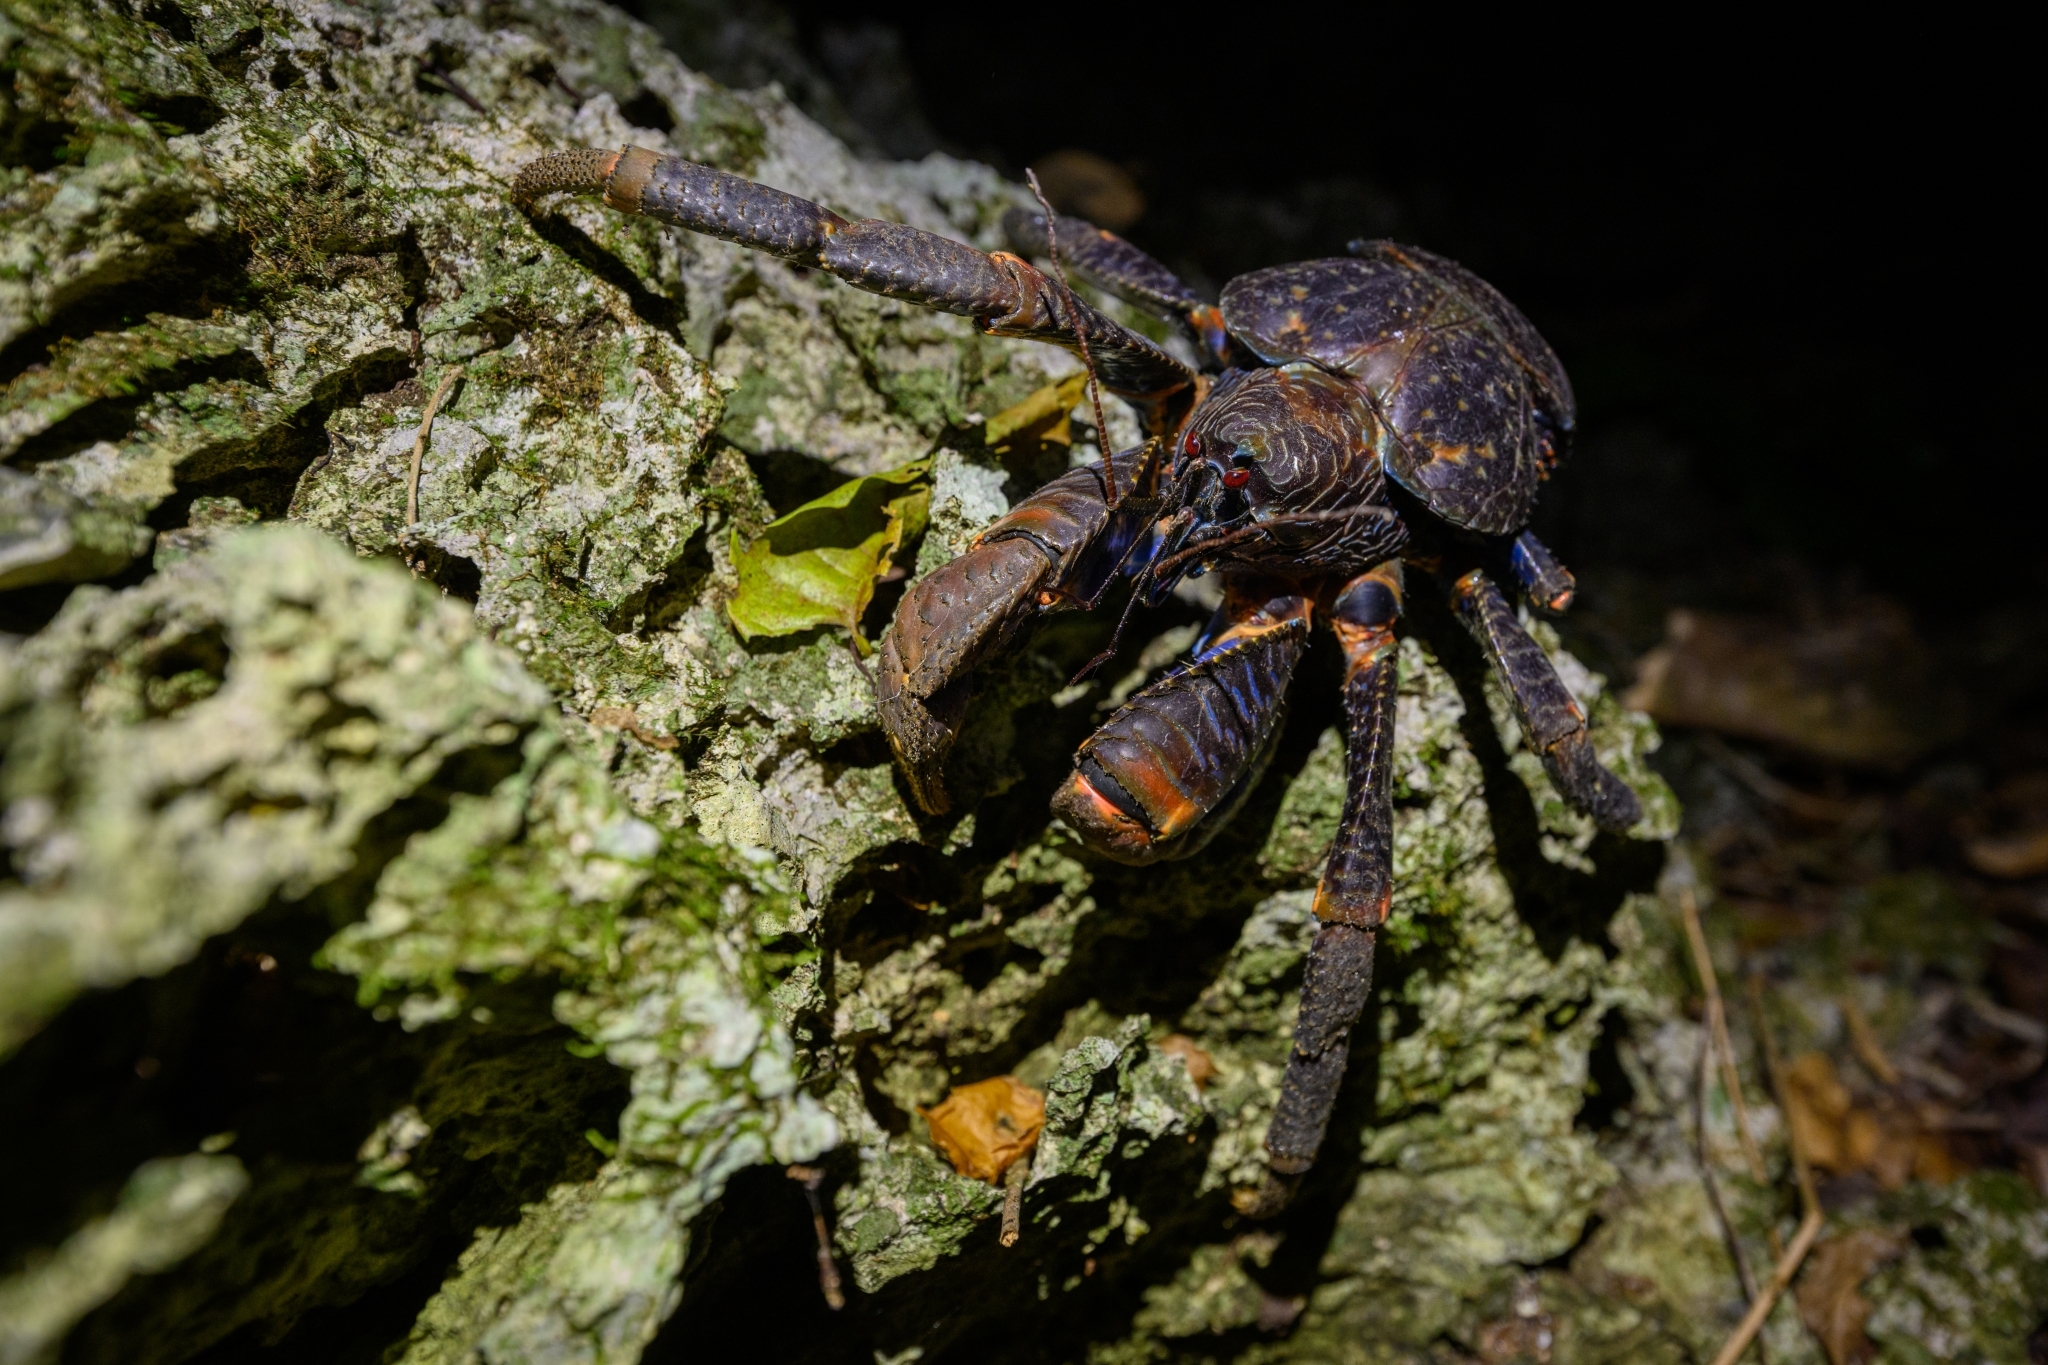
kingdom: Animalia
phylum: Arthropoda
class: Malacostraca
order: Decapoda
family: Coenobitidae
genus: Birgus
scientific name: Birgus latro
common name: Coconut crab
